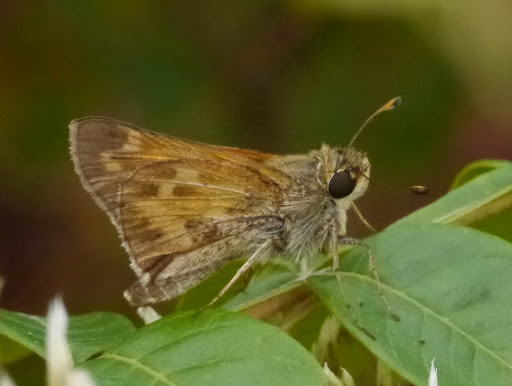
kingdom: Animalia
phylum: Arthropoda
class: Insecta
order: Lepidoptera
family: Hesperiidae
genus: Atalopedes
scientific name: Atalopedes
